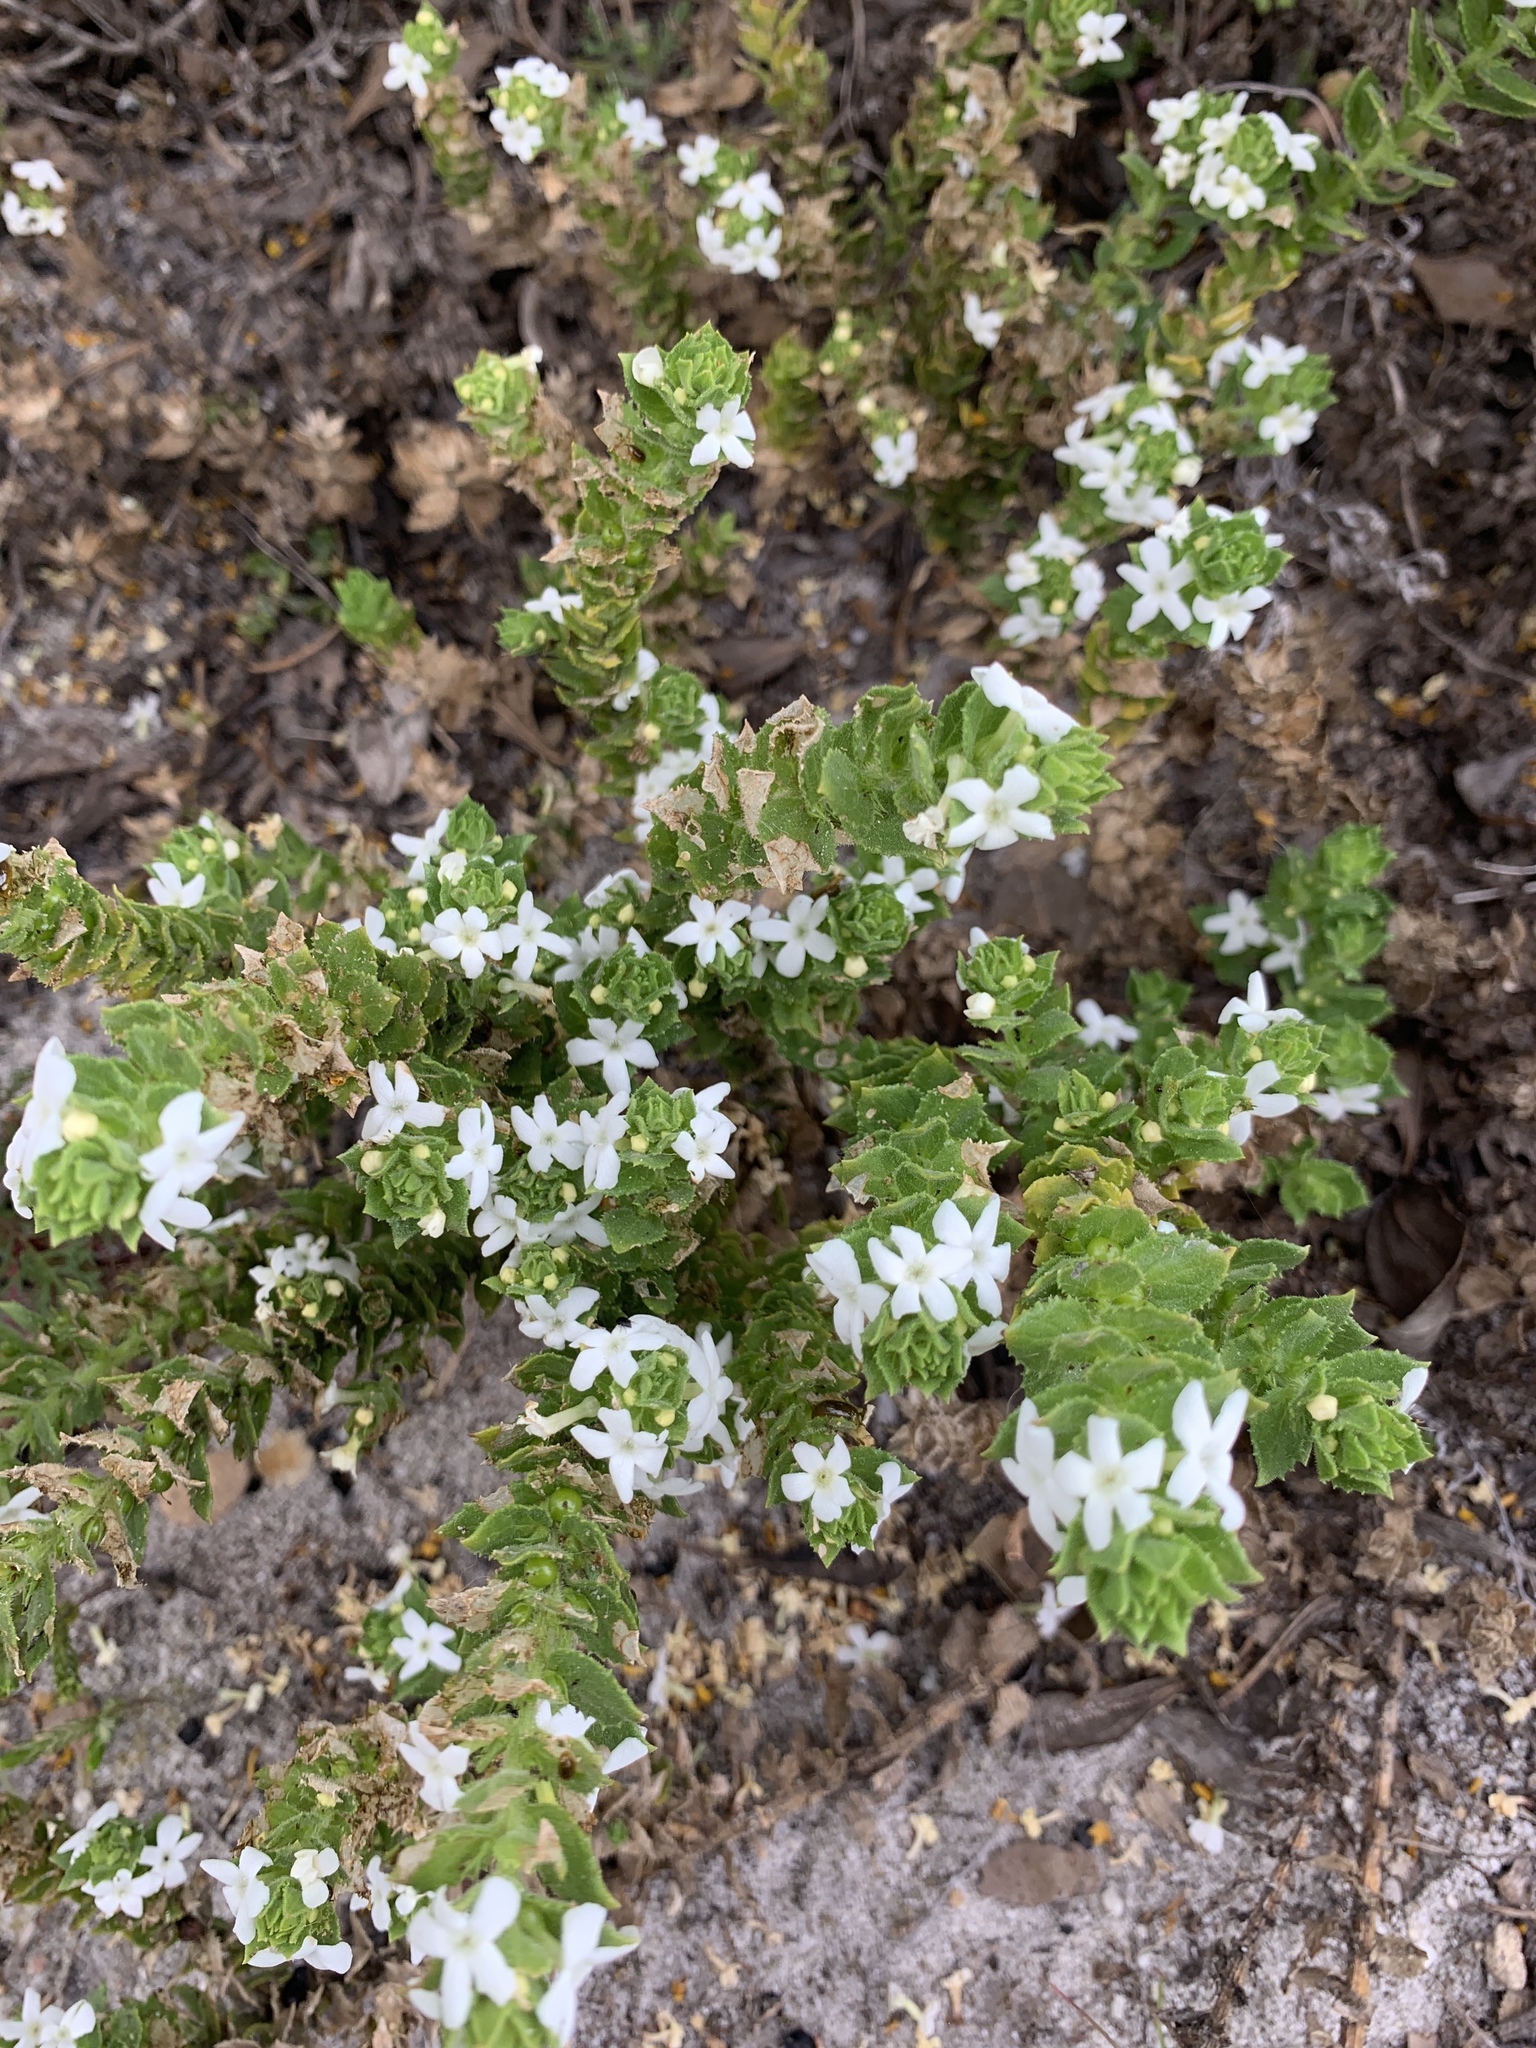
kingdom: Plantae
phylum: Tracheophyta
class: Magnoliopsida
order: Lamiales
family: Scrophulariaceae
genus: Oftia
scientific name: Oftia africana
